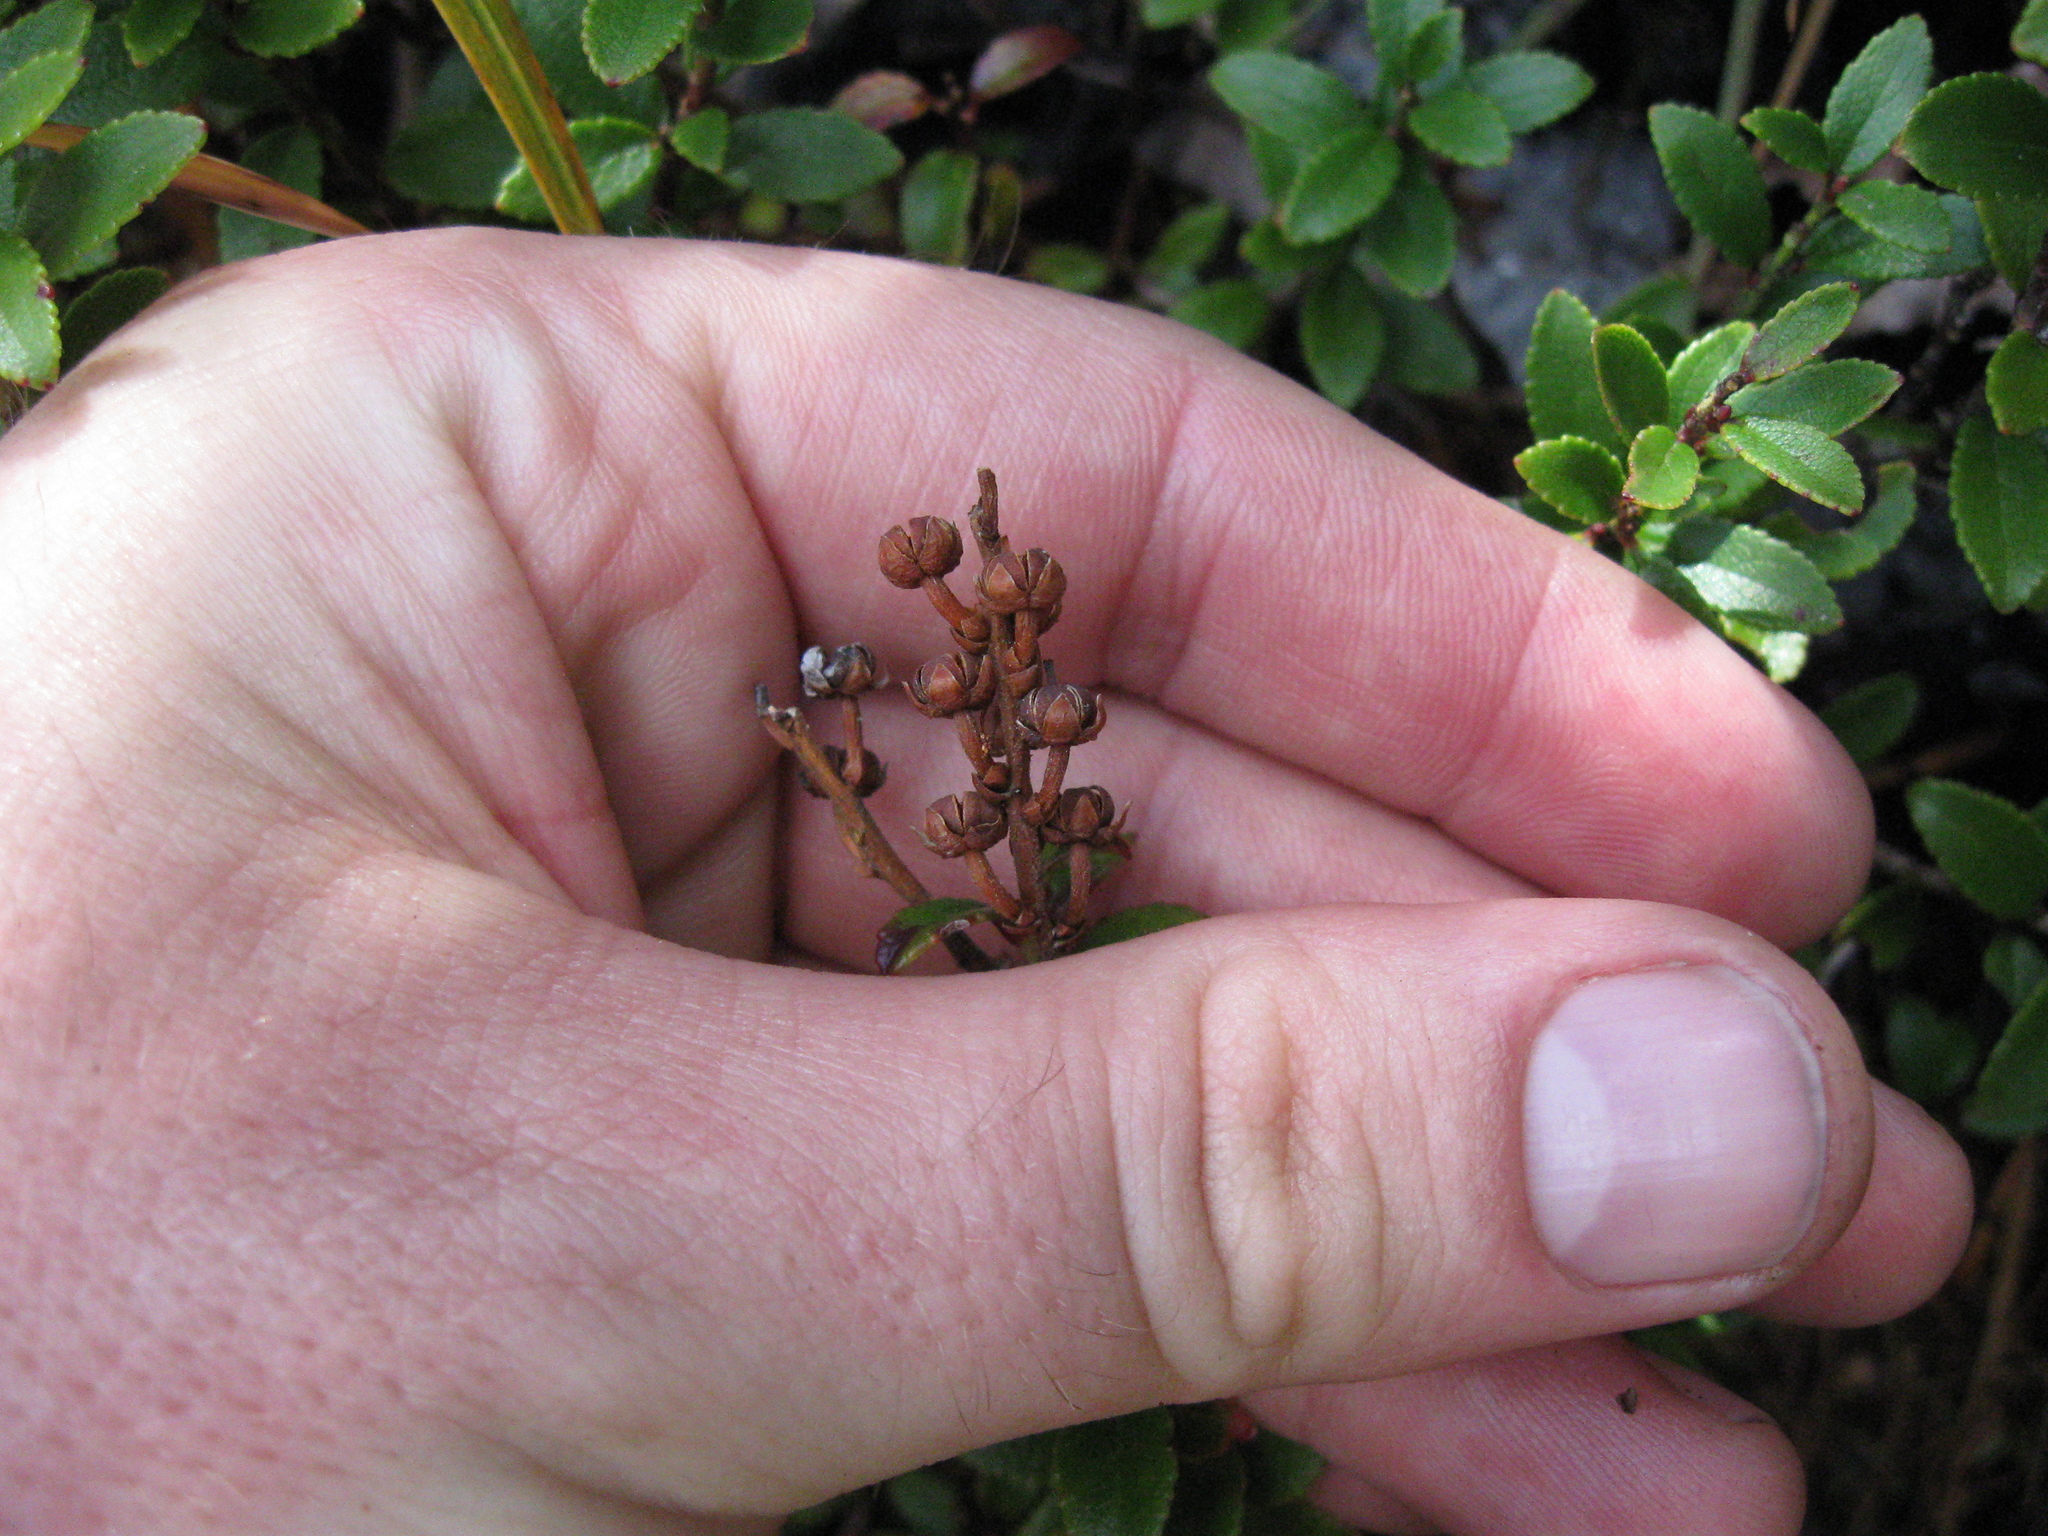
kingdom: Plantae
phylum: Tracheophyta
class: Magnoliopsida
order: Ericales
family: Ericaceae
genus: Gaultheria
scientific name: Gaultheria crassa
